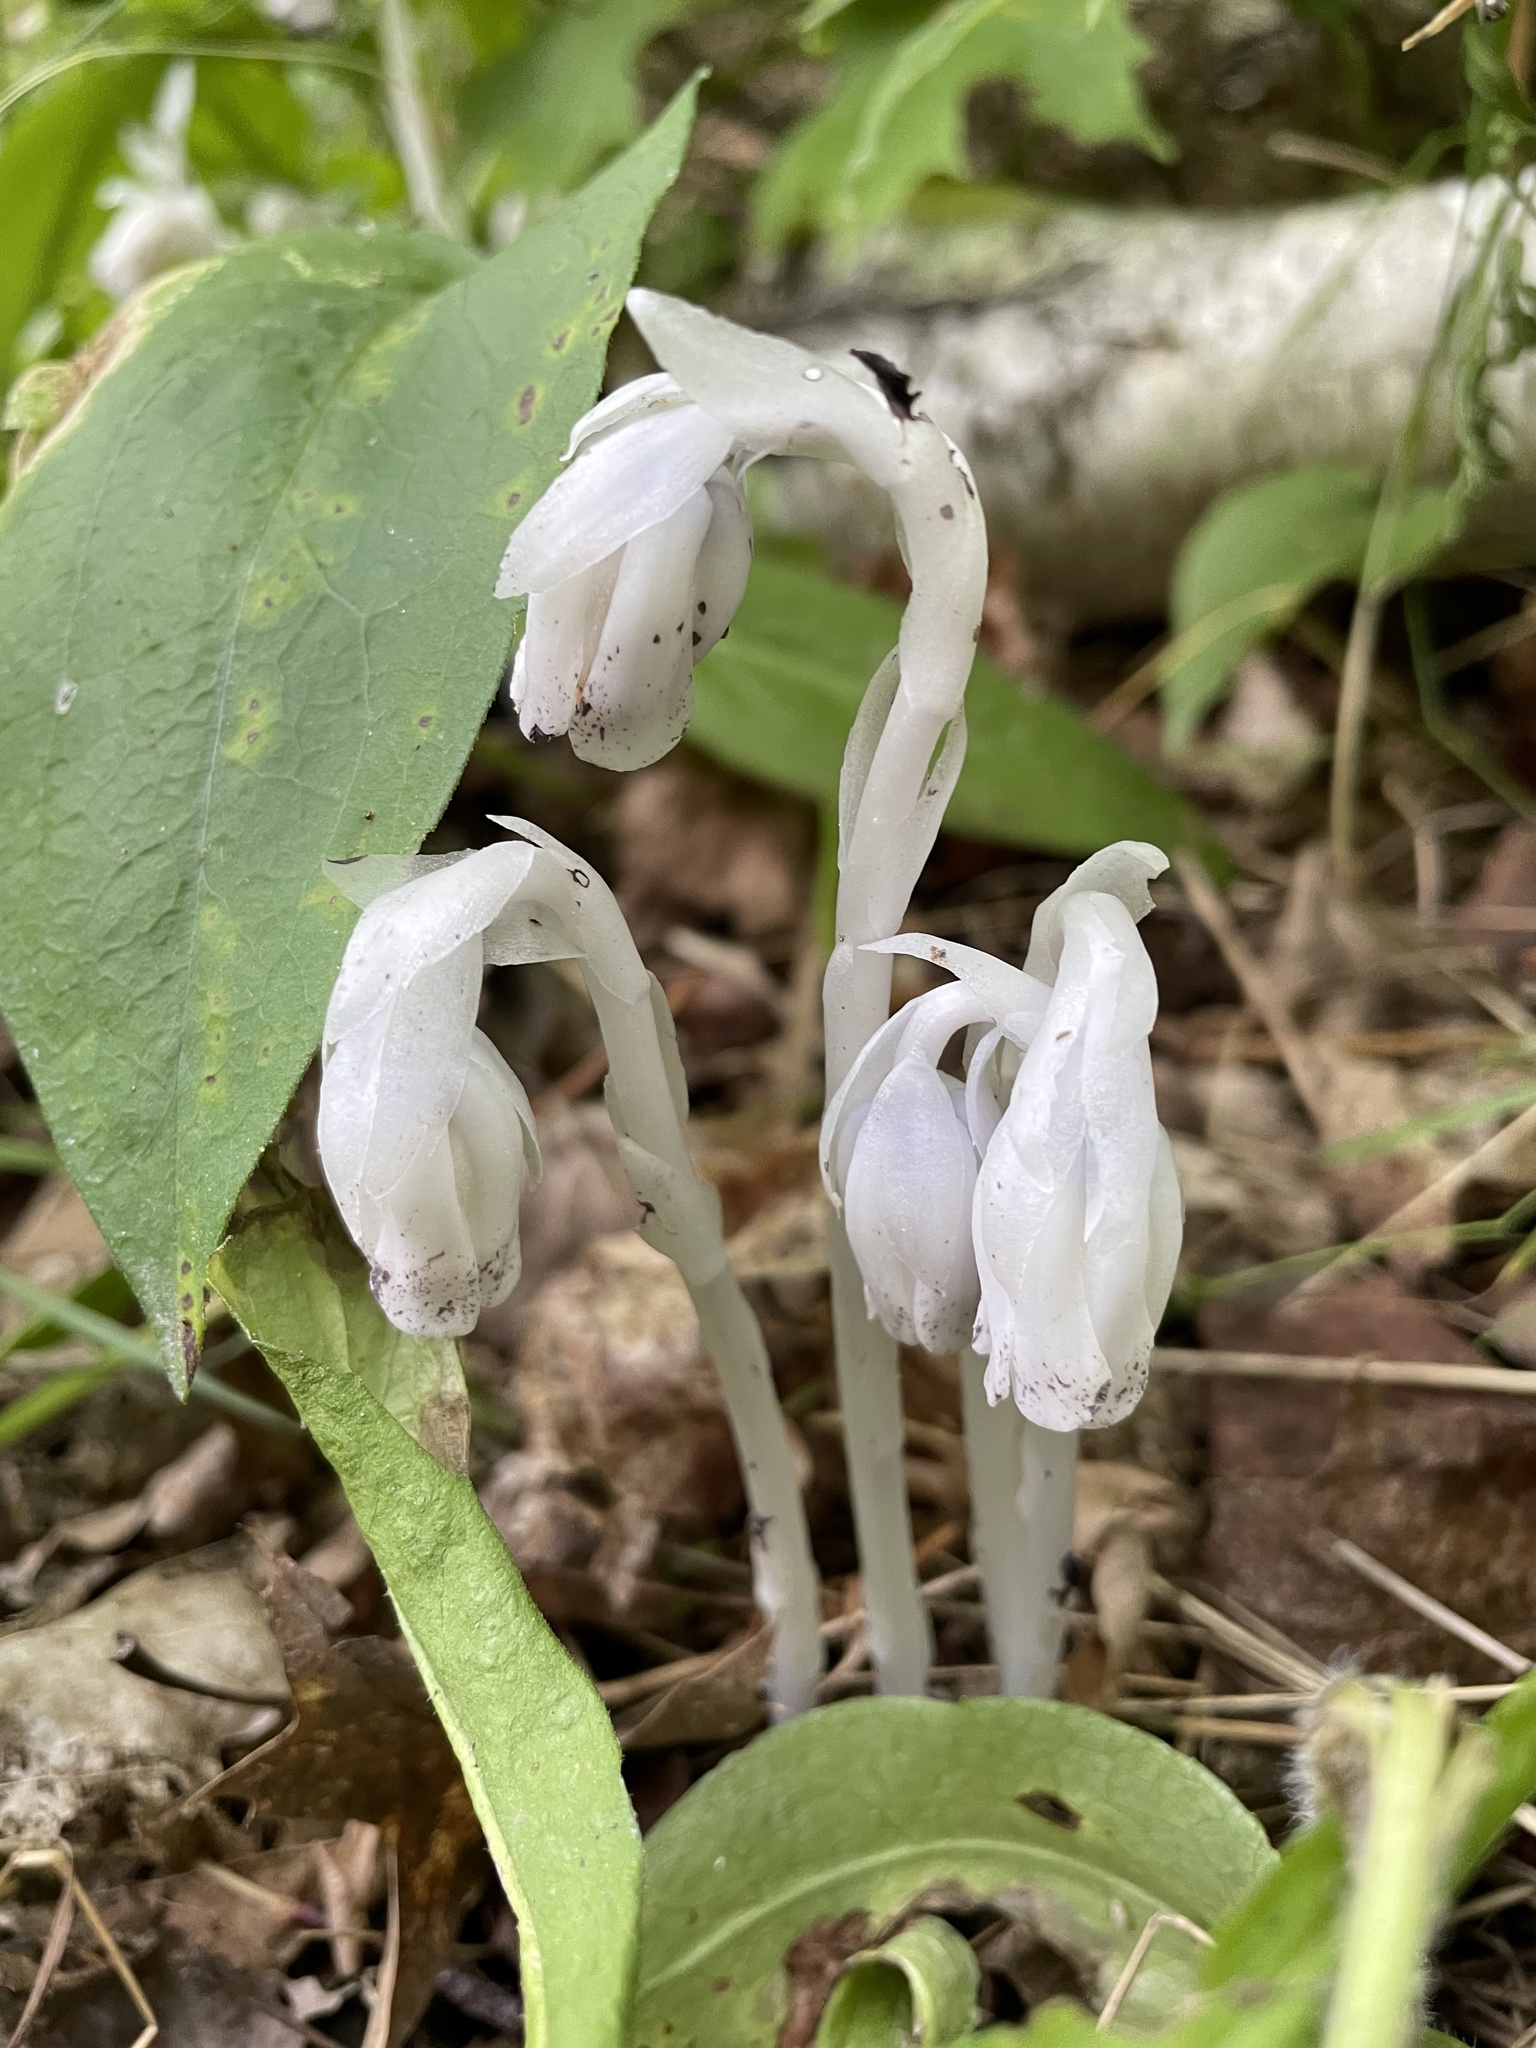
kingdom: Plantae
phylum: Tracheophyta
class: Magnoliopsida
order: Ericales
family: Ericaceae
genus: Monotropa
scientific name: Monotropa uniflora
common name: Convulsion root
